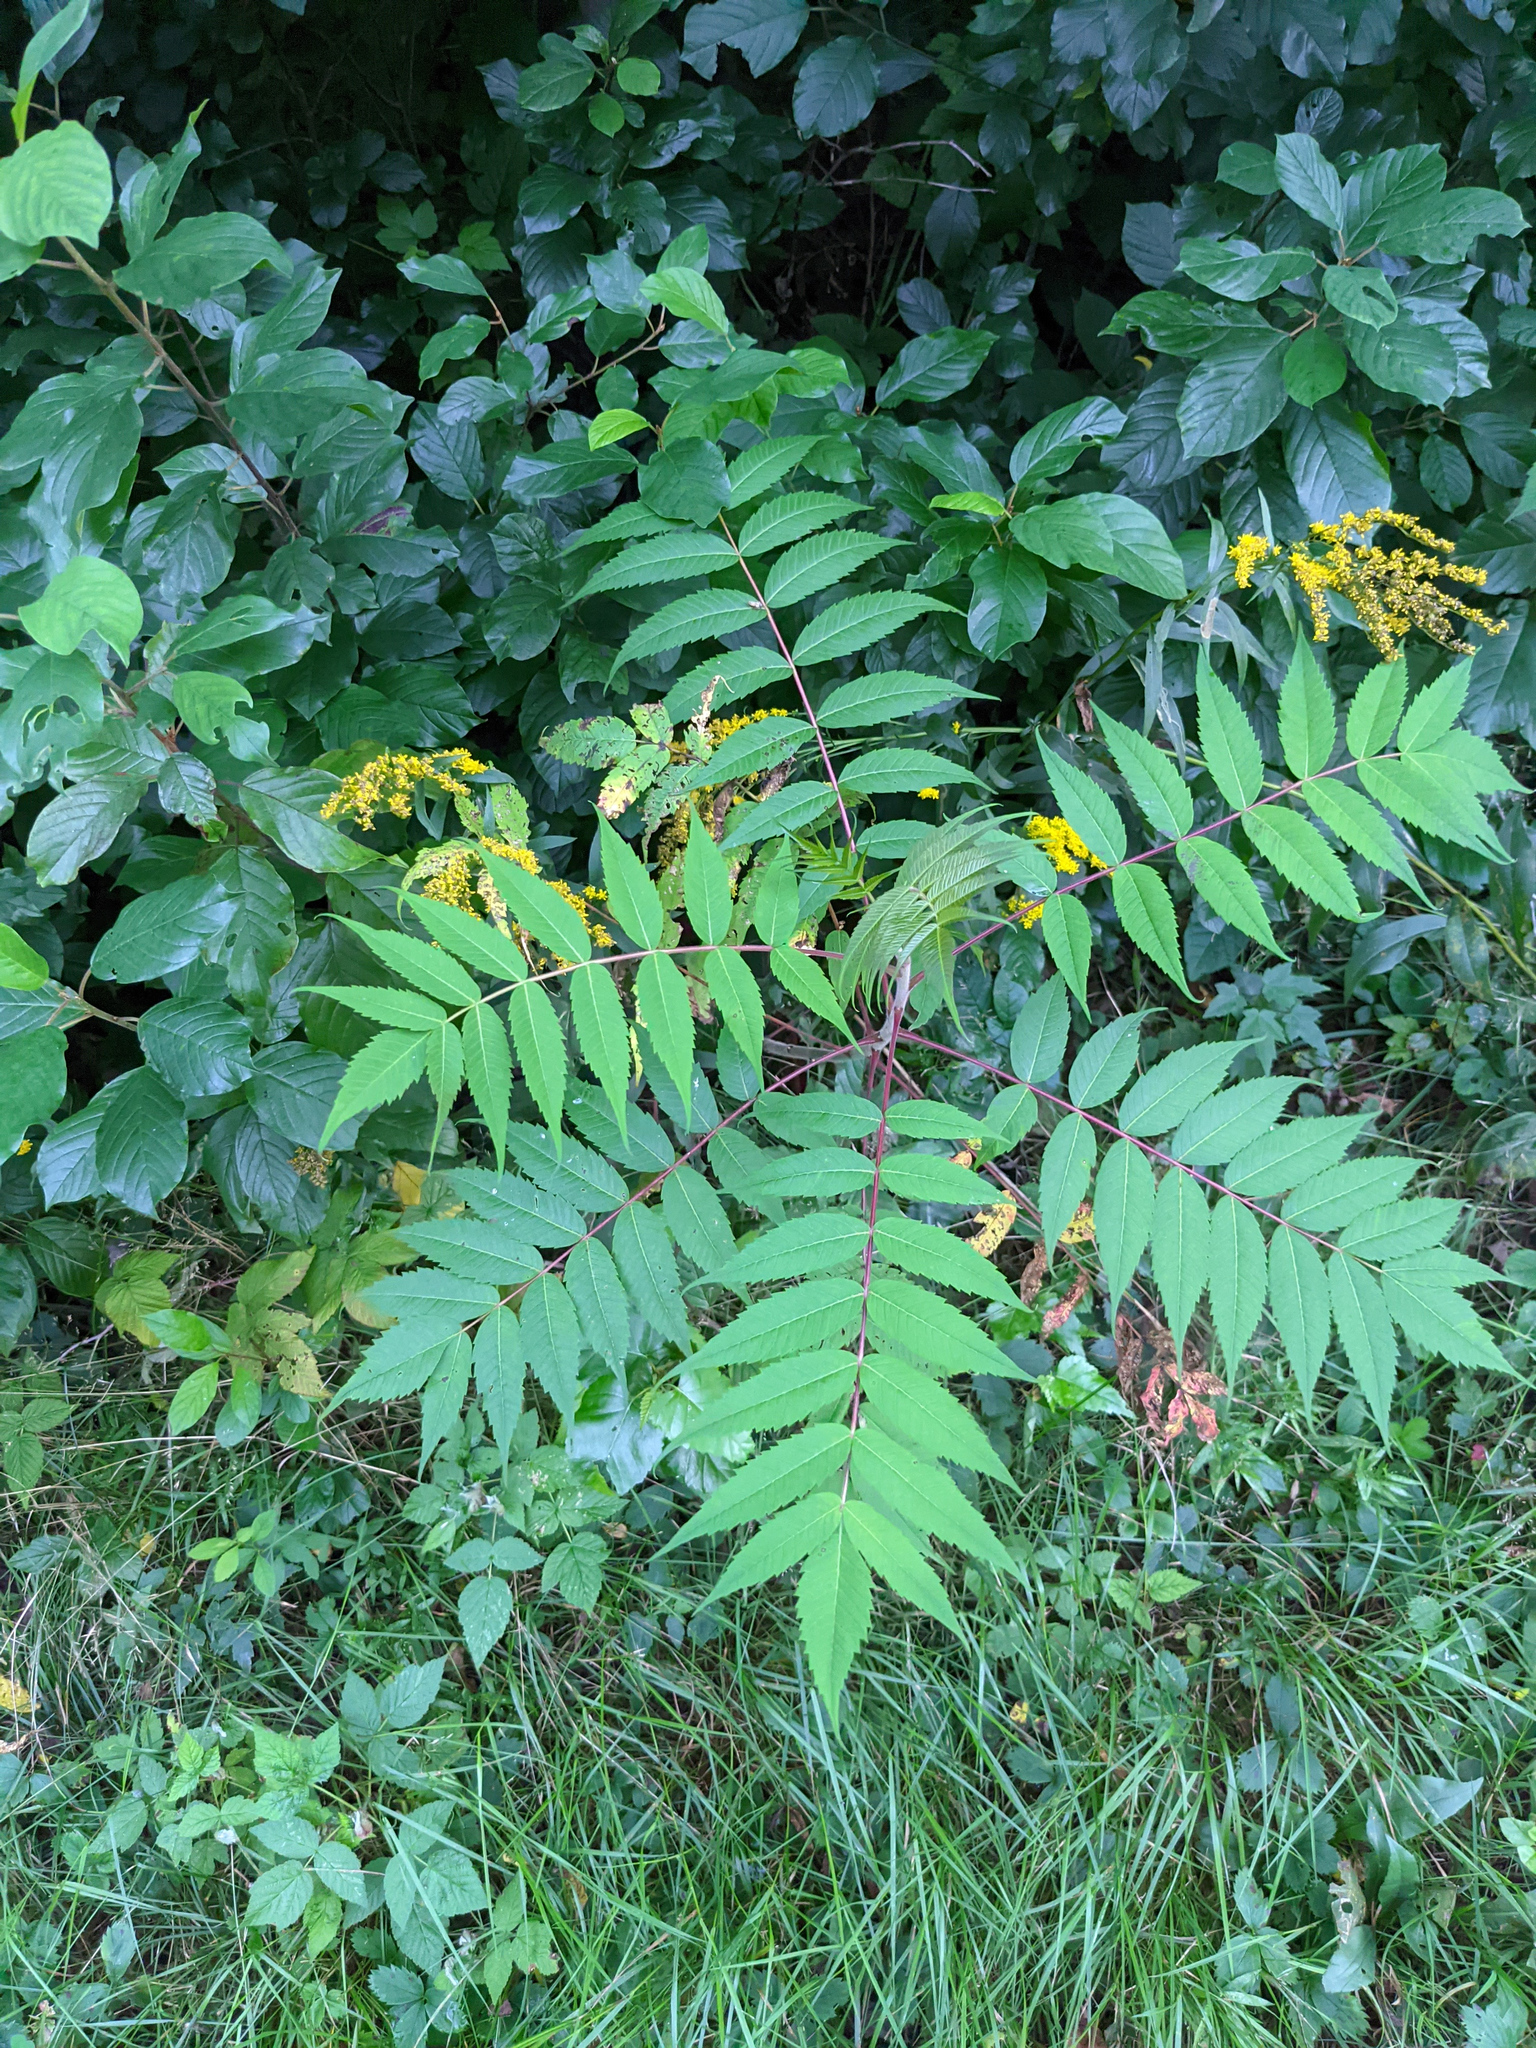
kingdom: Plantae
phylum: Tracheophyta
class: Magnoliopsida
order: Sapindales
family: Anacardiaceae
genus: Rhus
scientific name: Rhus typhina
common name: Staghorn sumac
